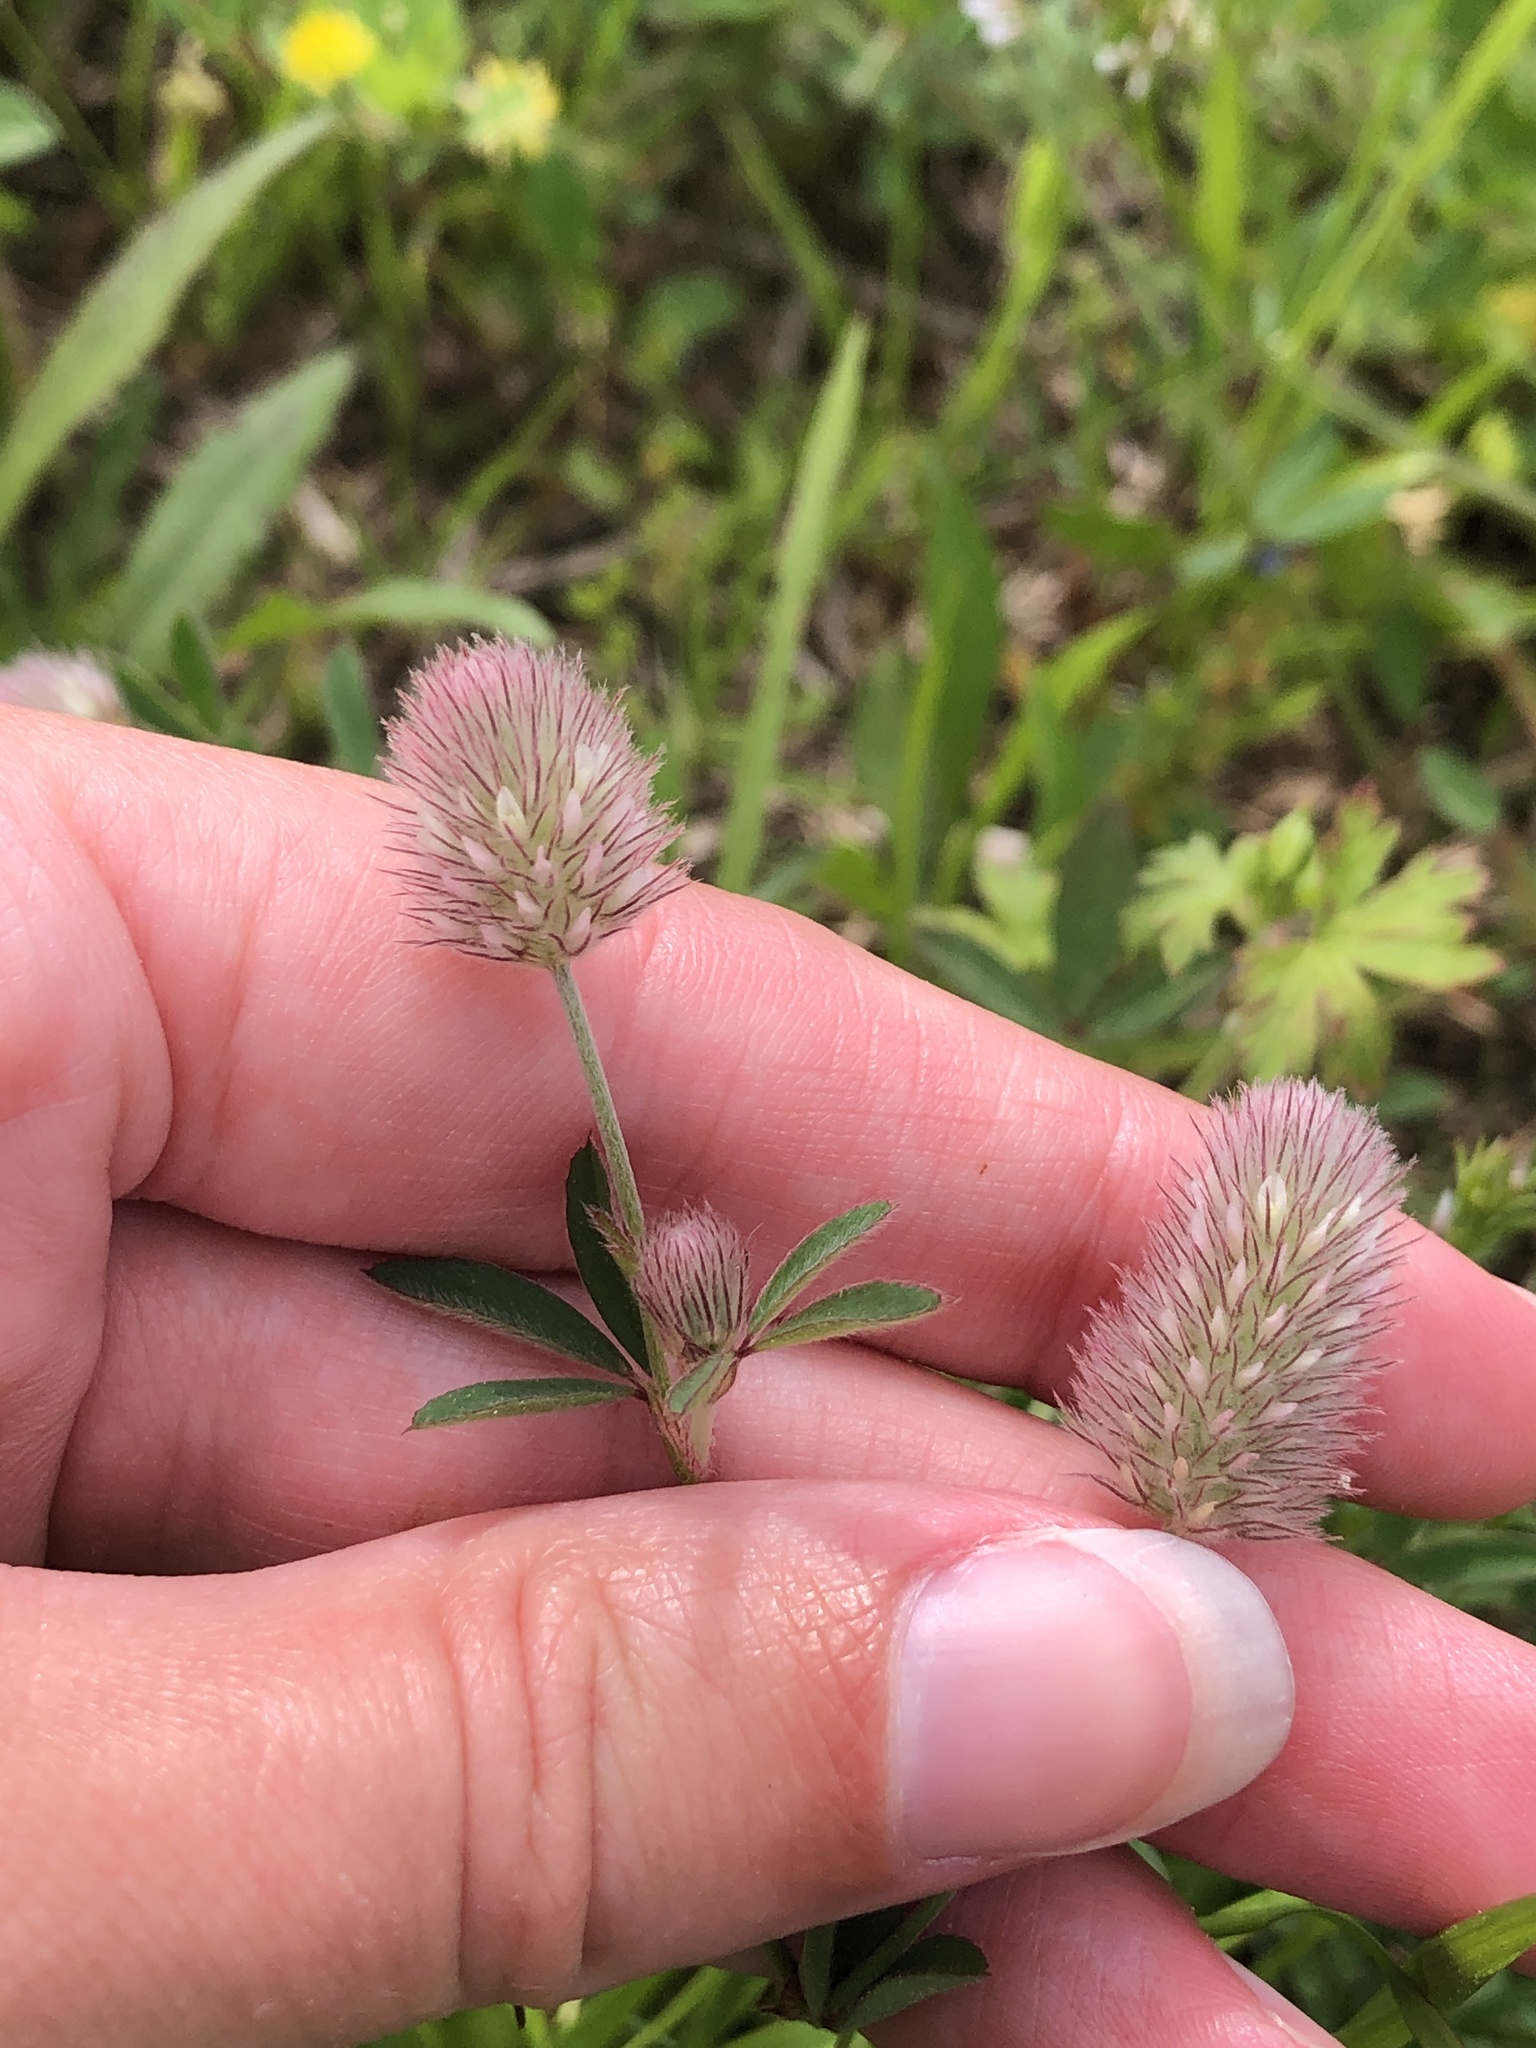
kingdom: Plantae
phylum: Tracheophyta
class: Magnoliopsida
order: Fabales
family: Fabaceae
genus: Trifolium
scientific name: Trifolium arvense
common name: Hare's-foot clover
